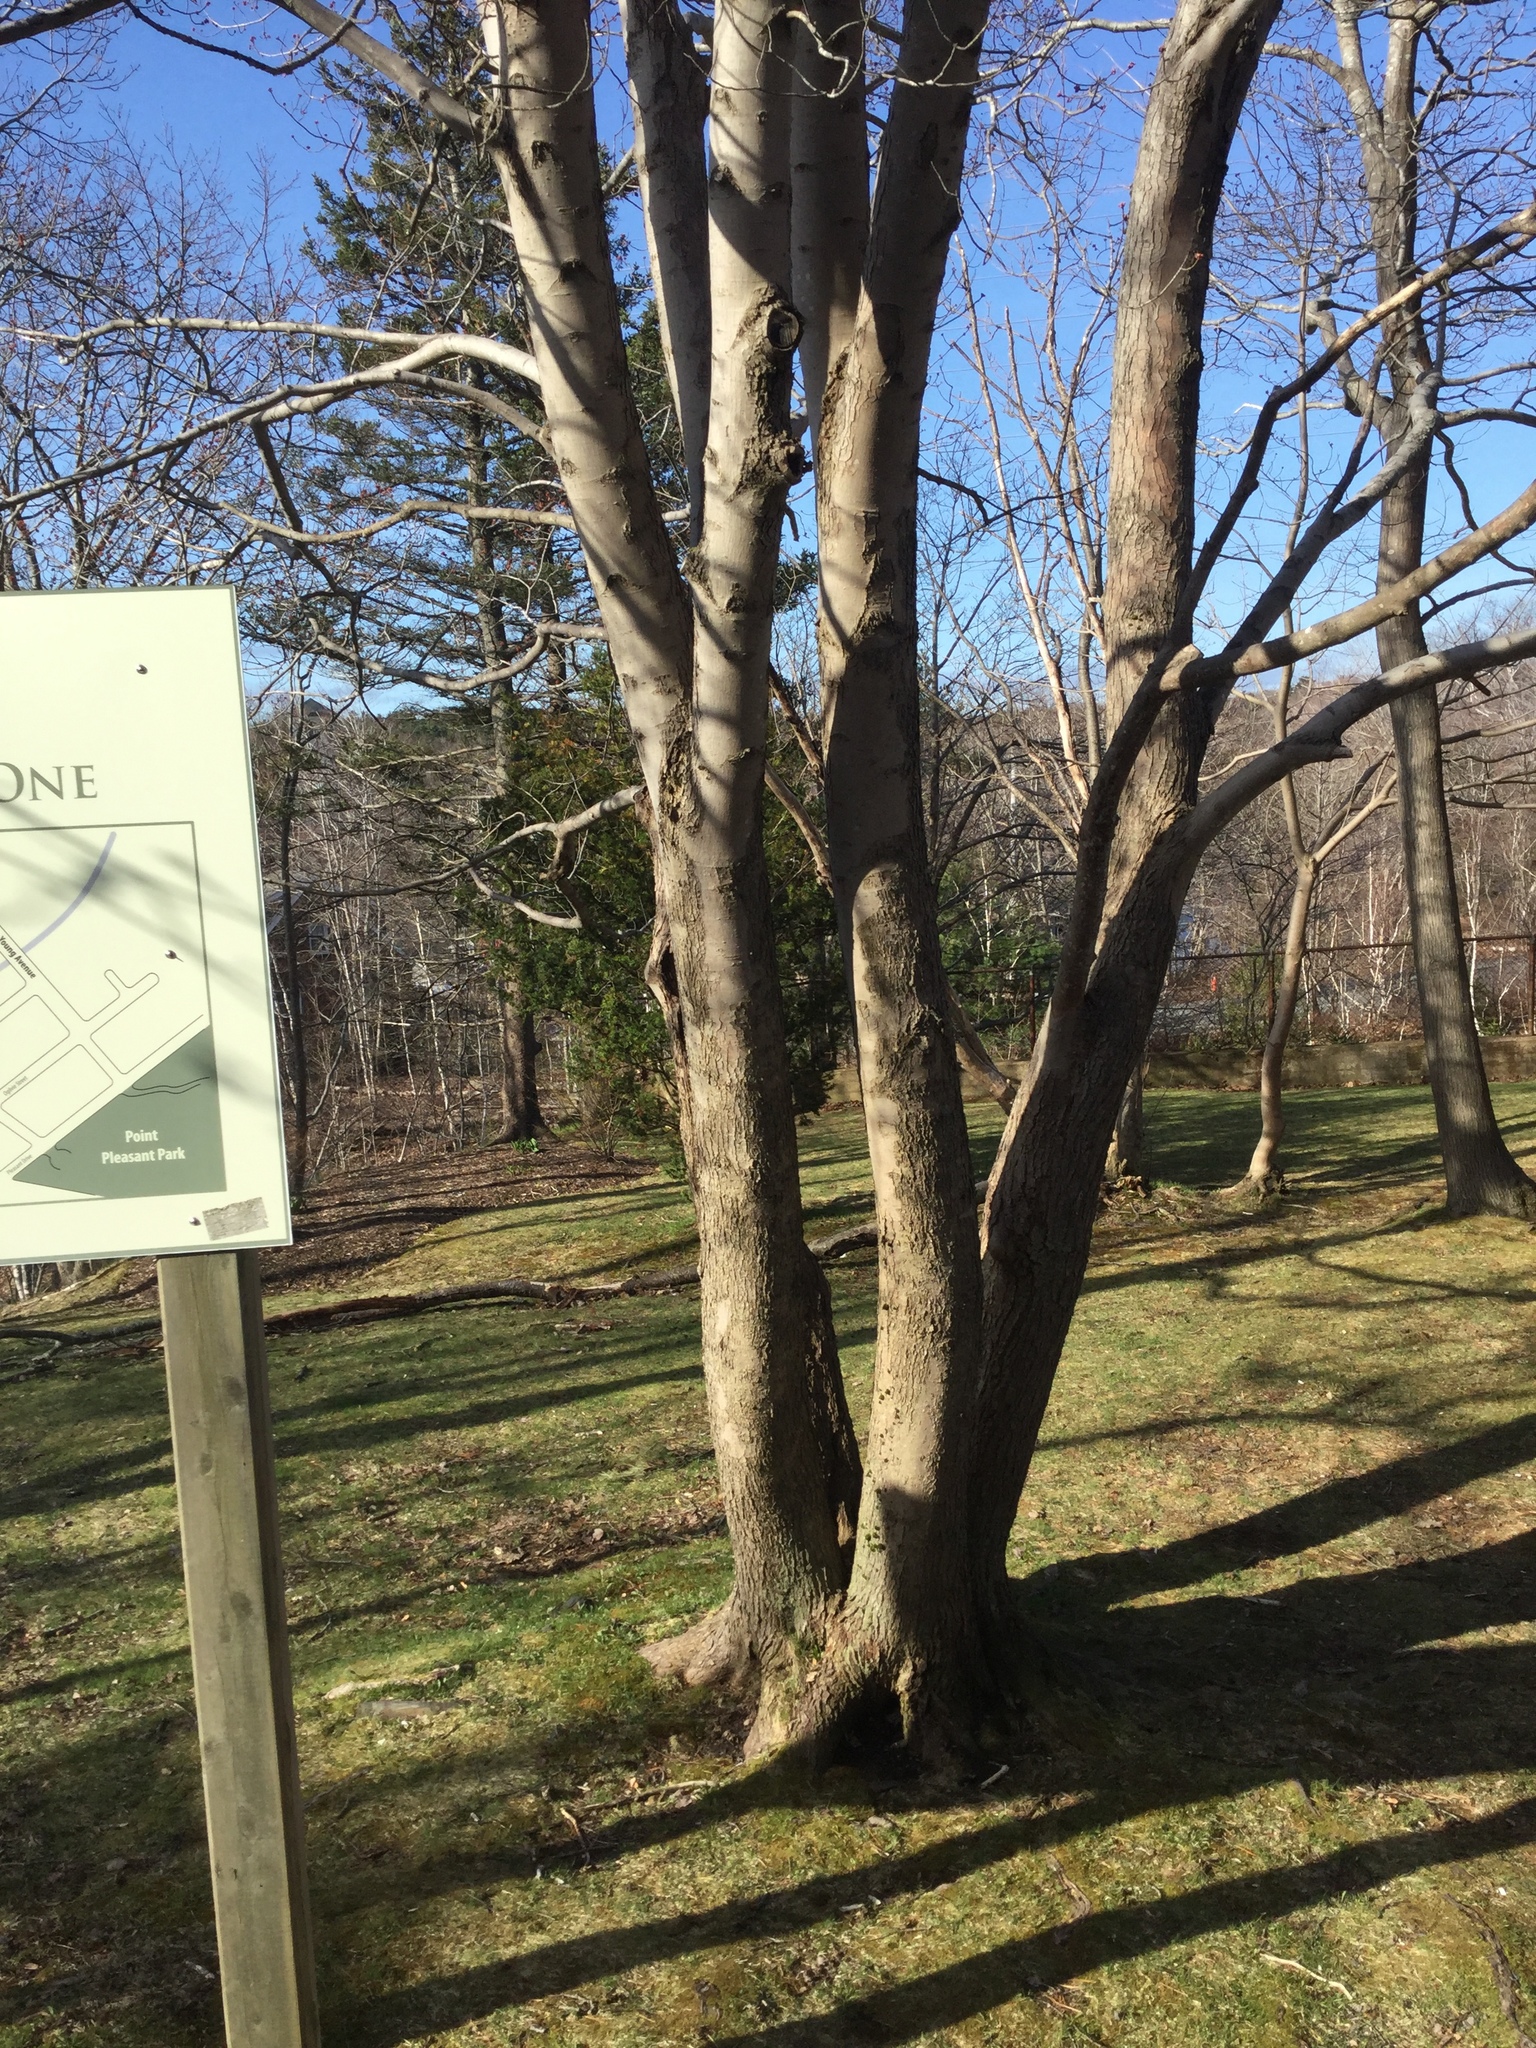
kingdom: Plantae
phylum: Tracheophyta
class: Magnoliopsida
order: Sapindales
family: Sapindaceae
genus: Acer
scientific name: Acer rubrum
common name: Red maple
